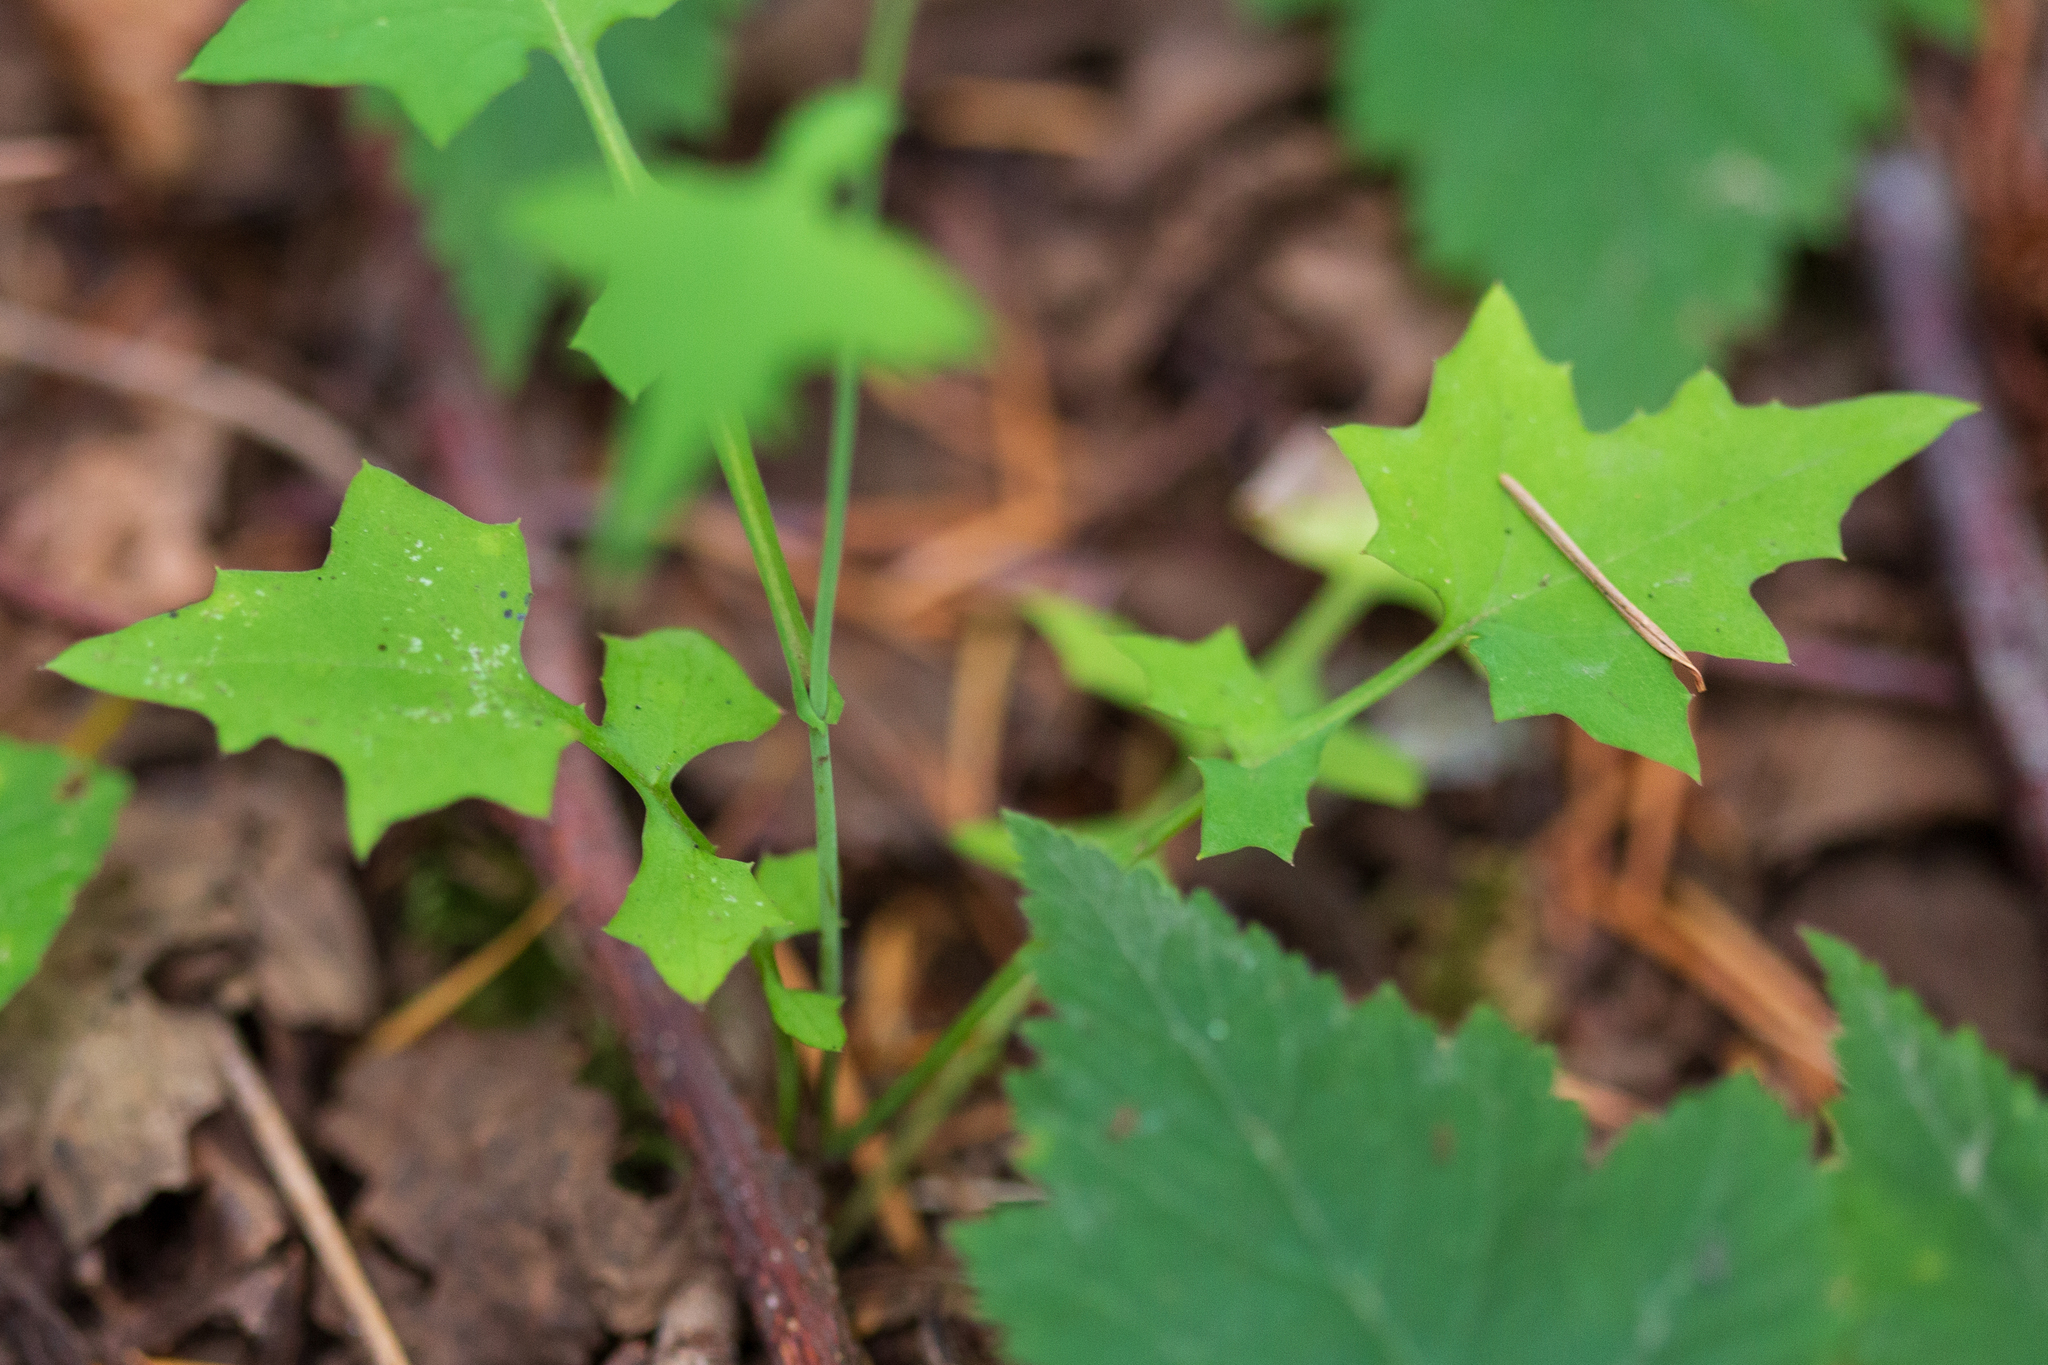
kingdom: Plantae
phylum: Tracheophyta
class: Magnoliopsida
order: Asterales
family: Asteraceae
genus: Mycelis
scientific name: Mycelis muralis
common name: Wall lettuce
